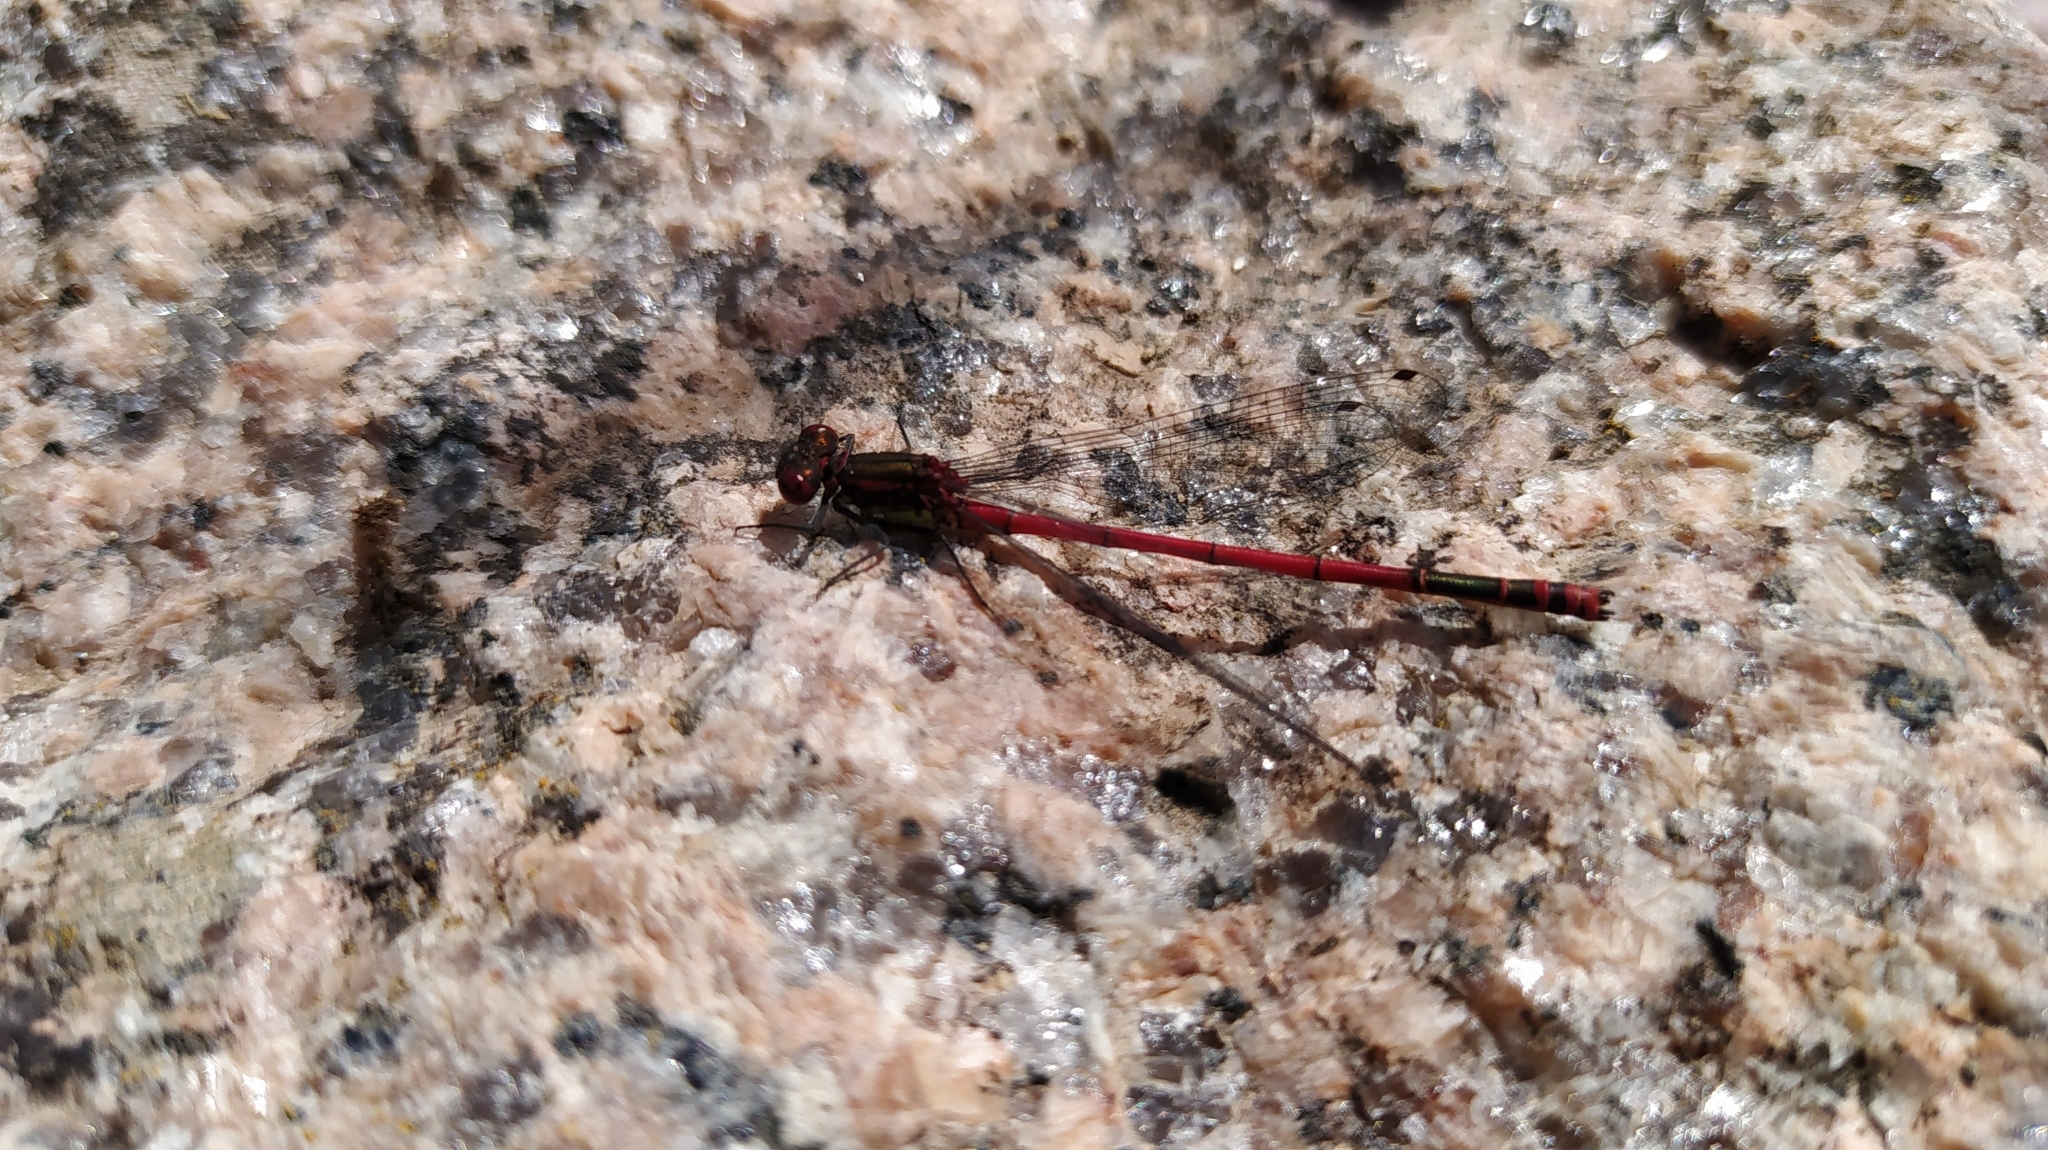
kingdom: Animalia
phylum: Arthropoda
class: Insecta
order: Odonata
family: Coenagrionidae
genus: Pyrrhosoma
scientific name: Pyrrhosoma nymphula
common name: Large red damsel
